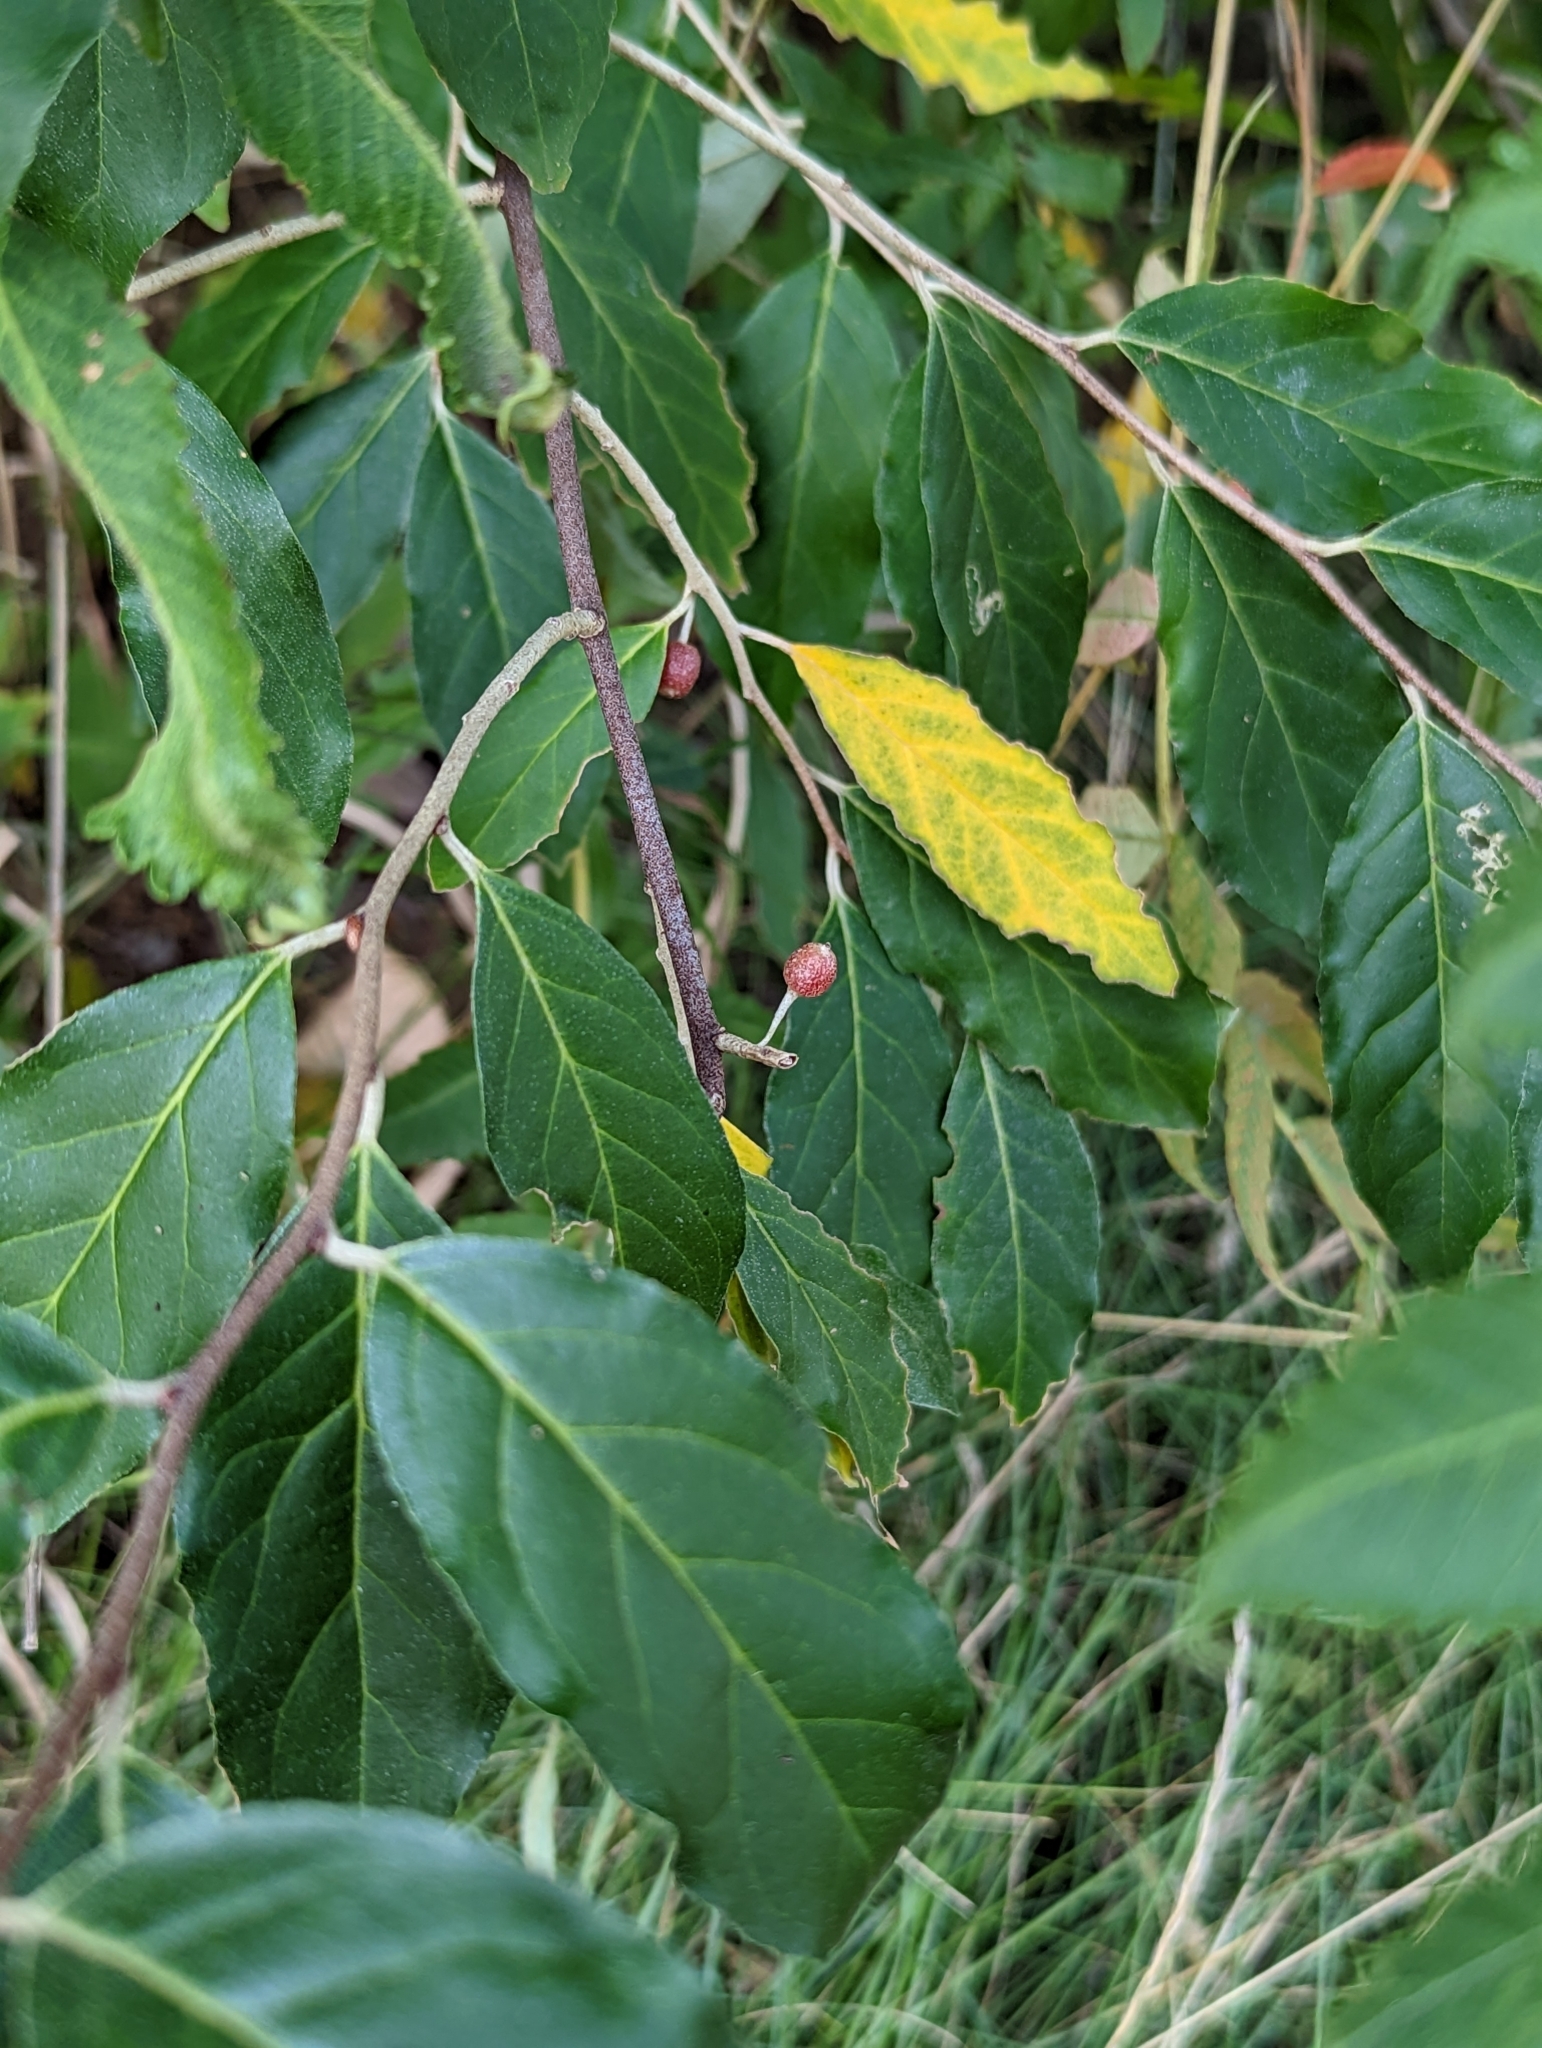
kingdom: Plantae
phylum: Tracheophyta
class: Magnoliopsida
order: Rosales
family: Elaeagnaceae
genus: Elaeagnus
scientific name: Elaeagnus umbellata
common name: Autumn olive
